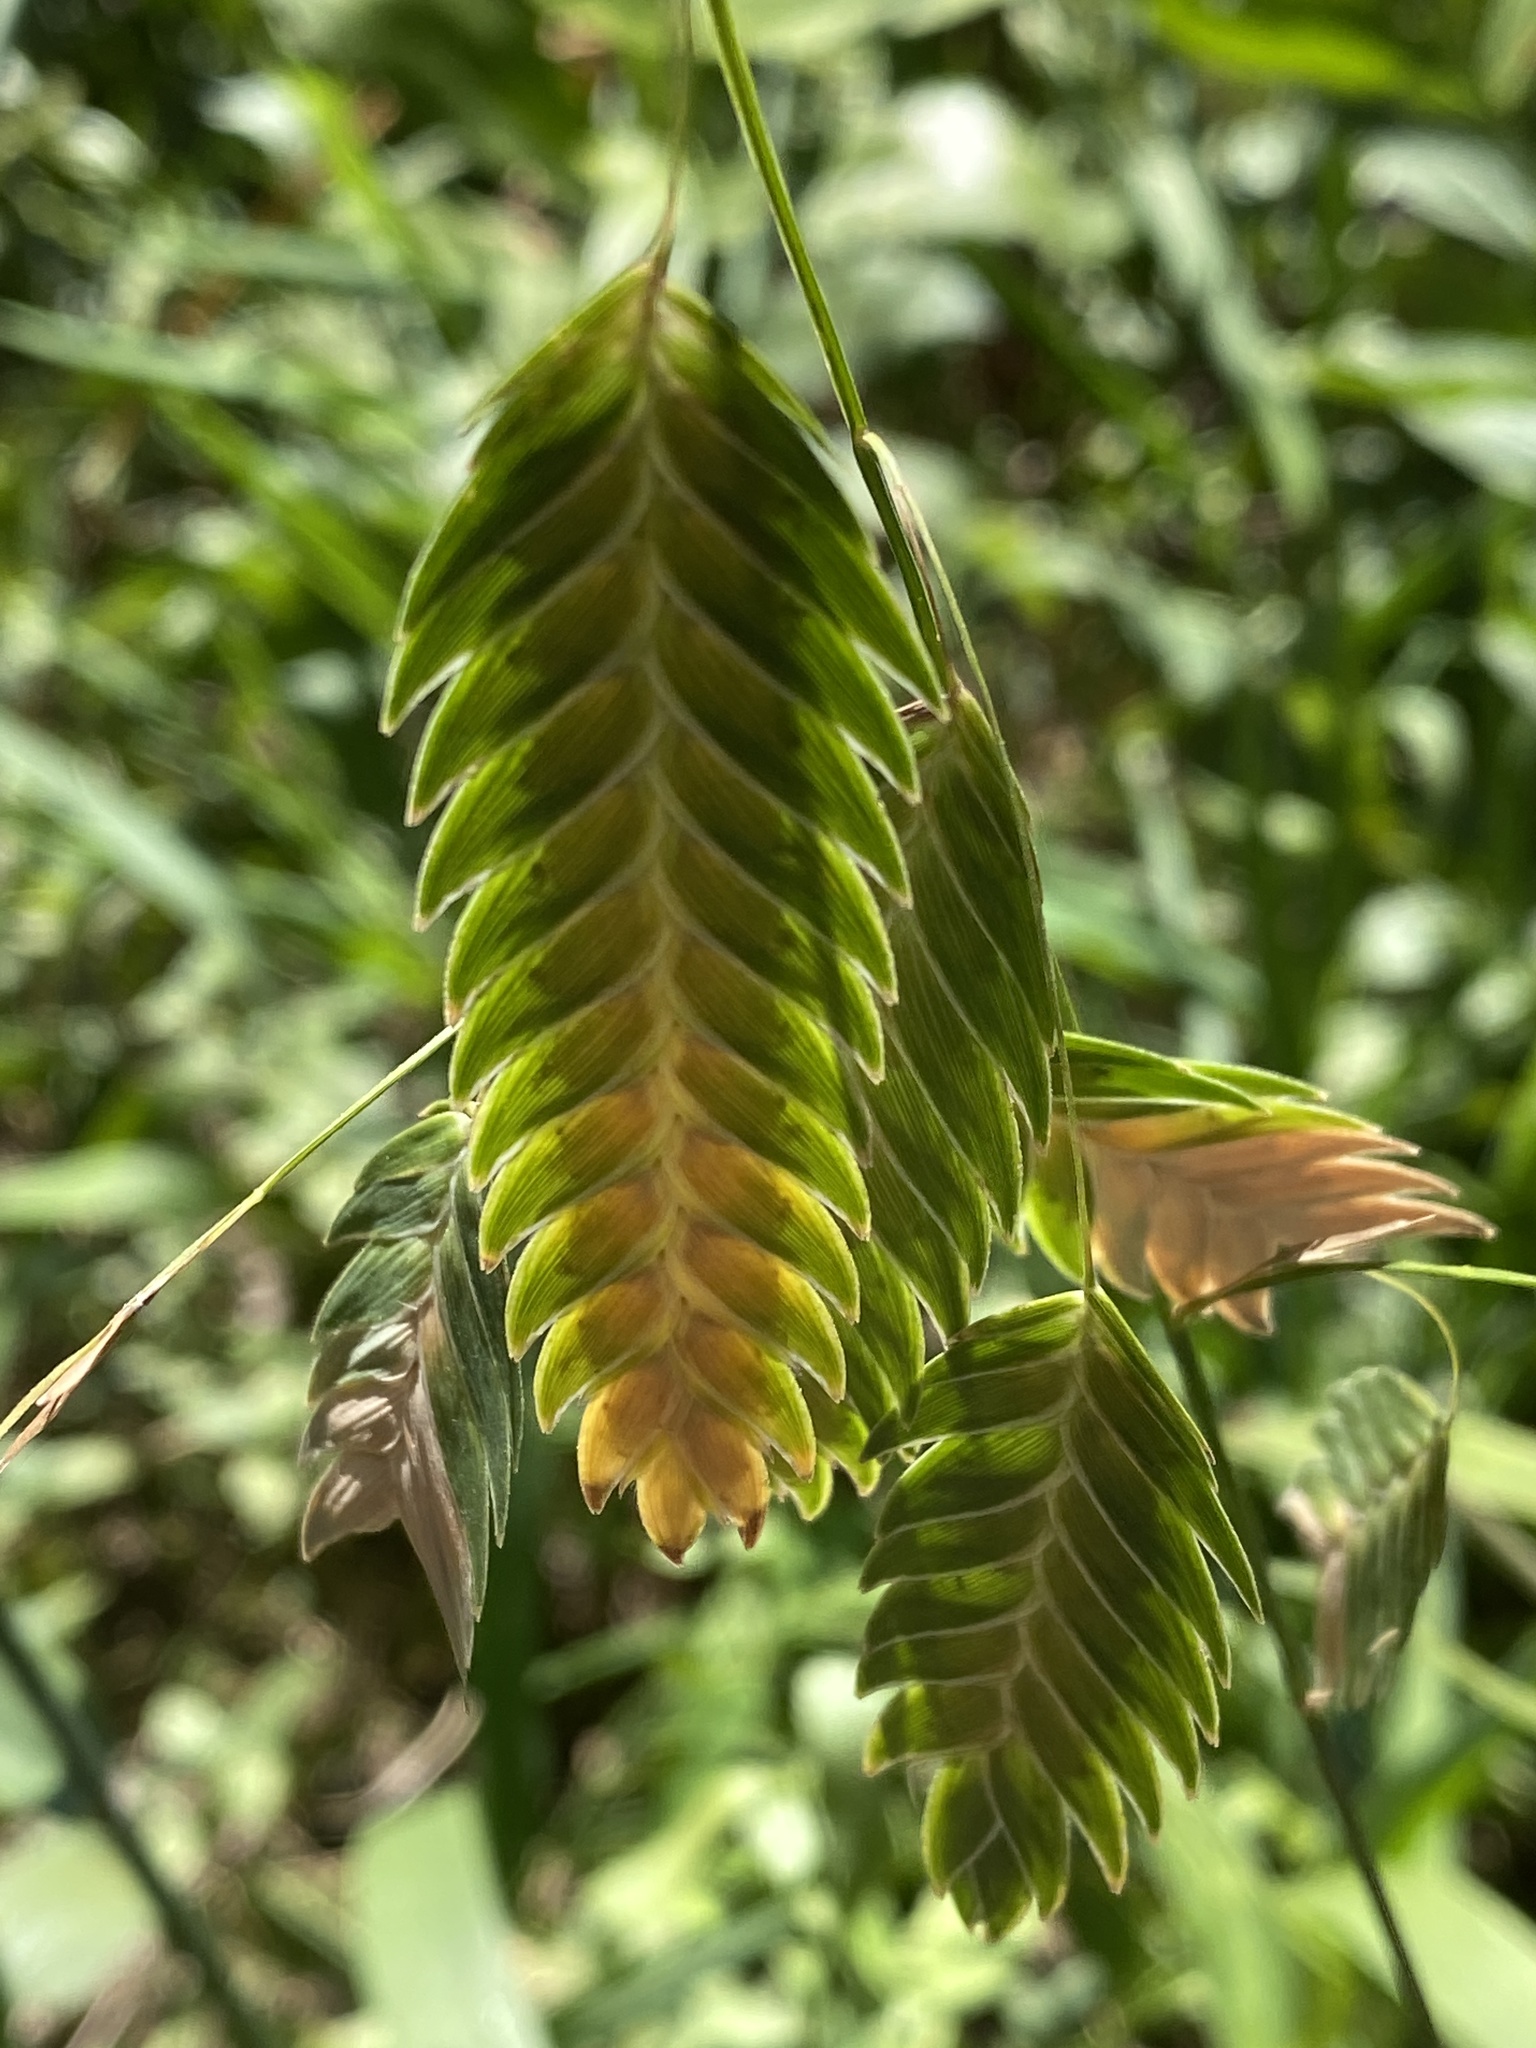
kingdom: Plantae
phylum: Tracheophyta
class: Liliopsida
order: Poales
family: Poaceae
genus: Chasmanthium
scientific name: Chasmanthium latifolium
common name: Broad-leaved chasmanthium
